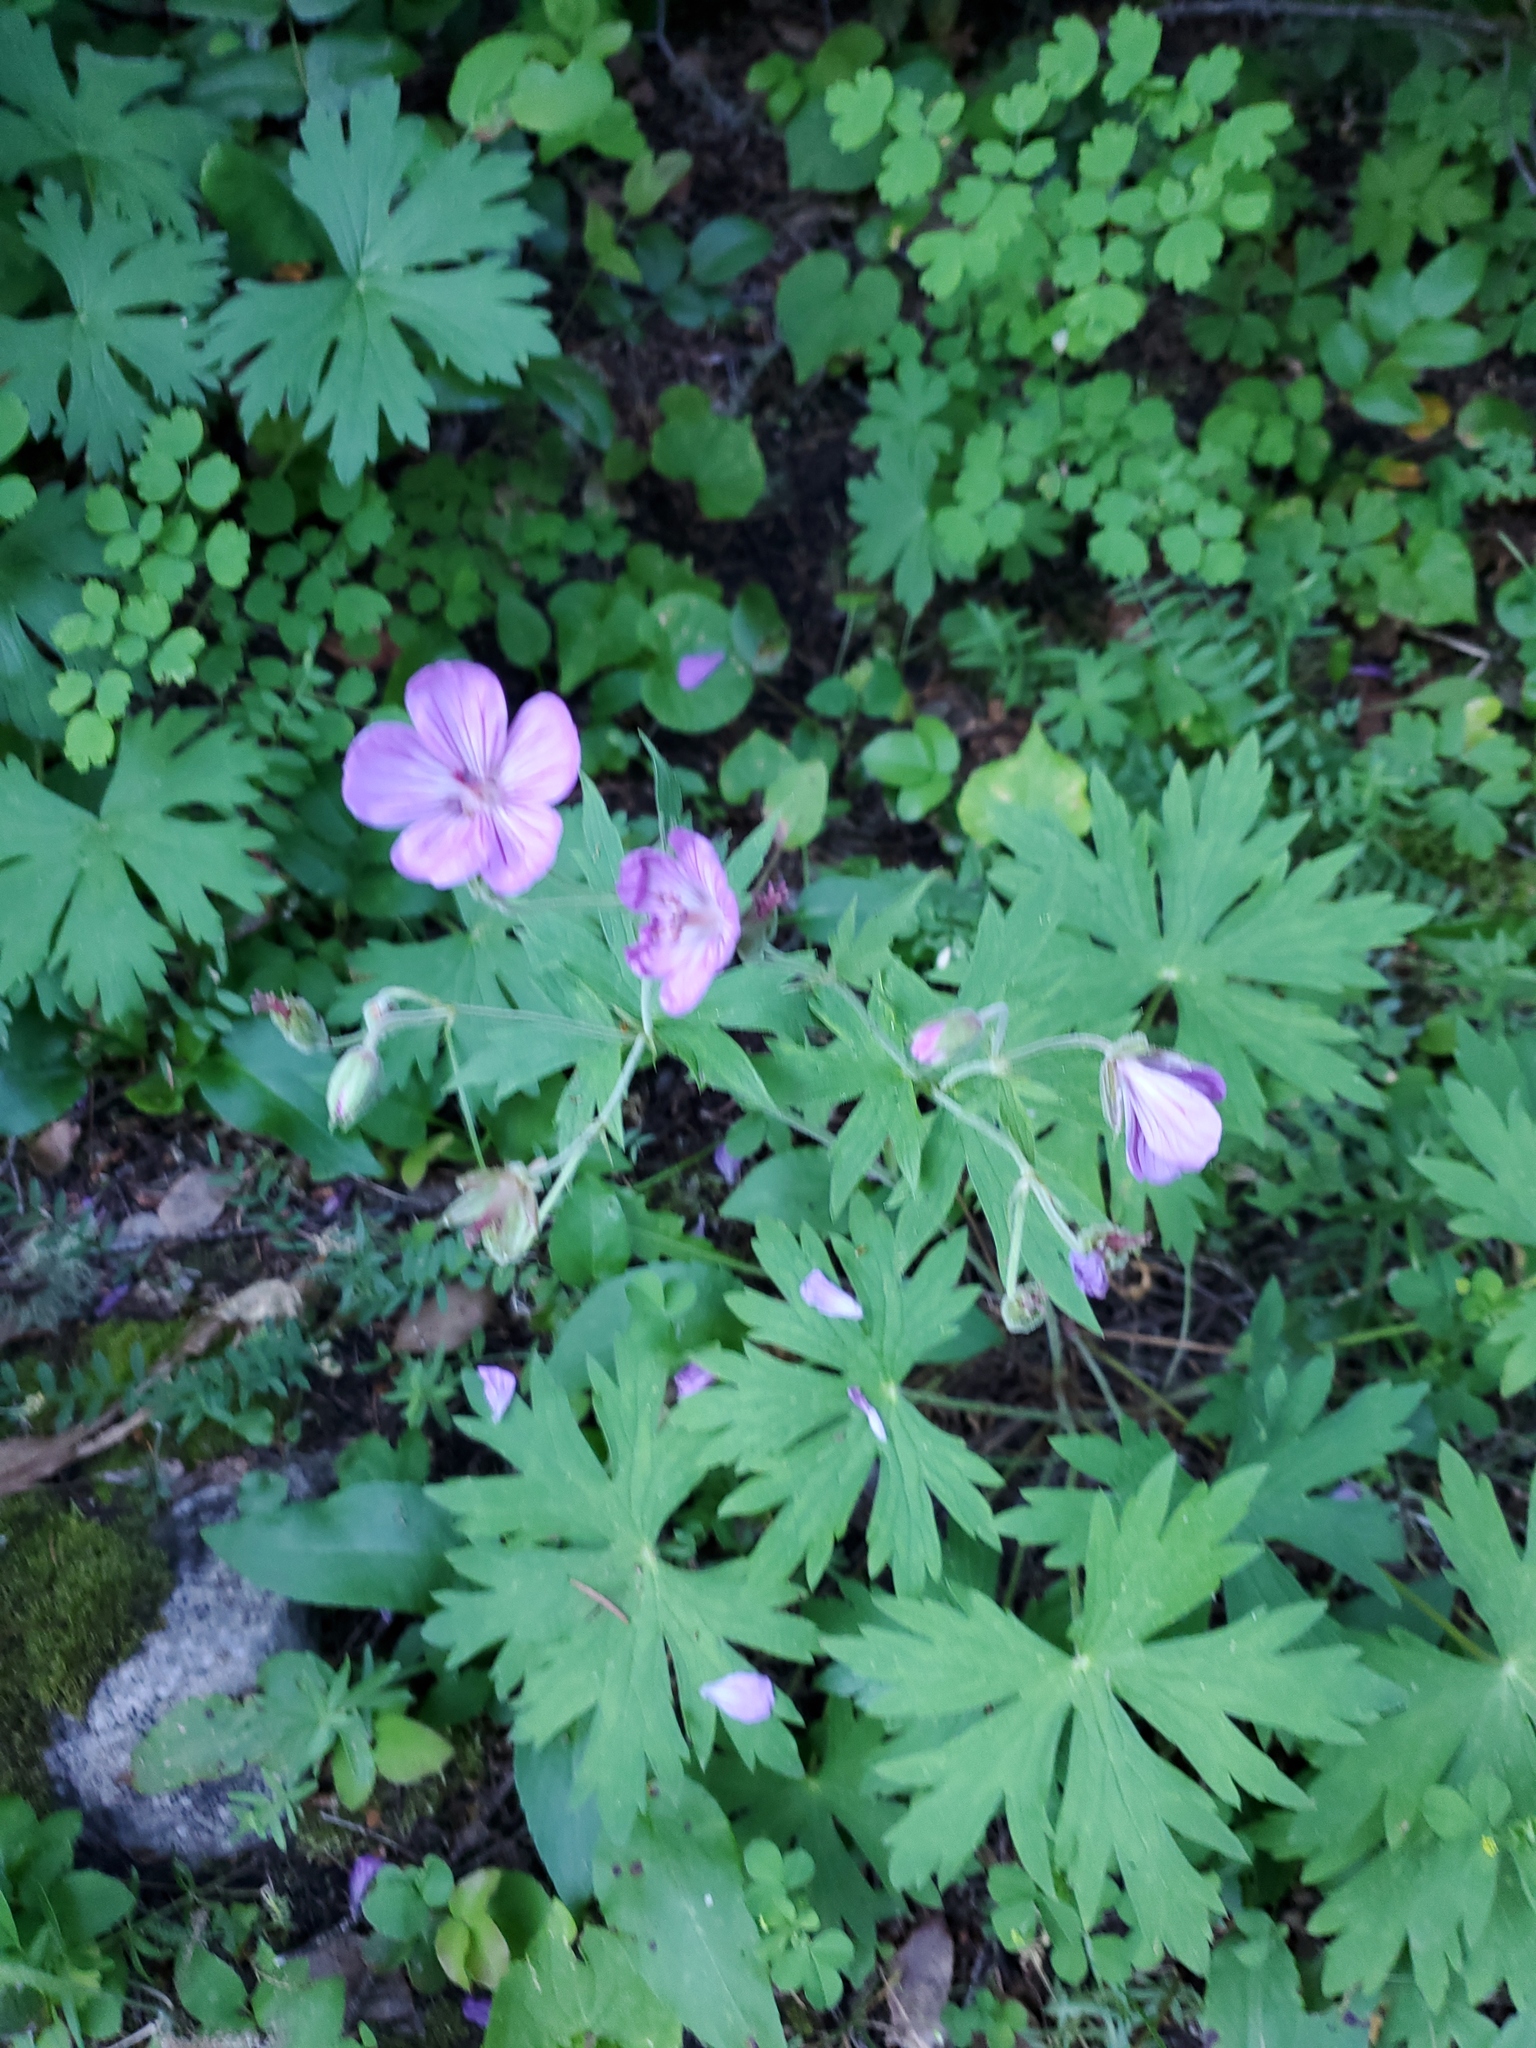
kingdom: Plantae
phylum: Tracheophyta
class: Magnoliopsida
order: Geraniales
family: Geraniaceae
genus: Geranium
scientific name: Geranium viscosissimum
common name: Purple geranium
